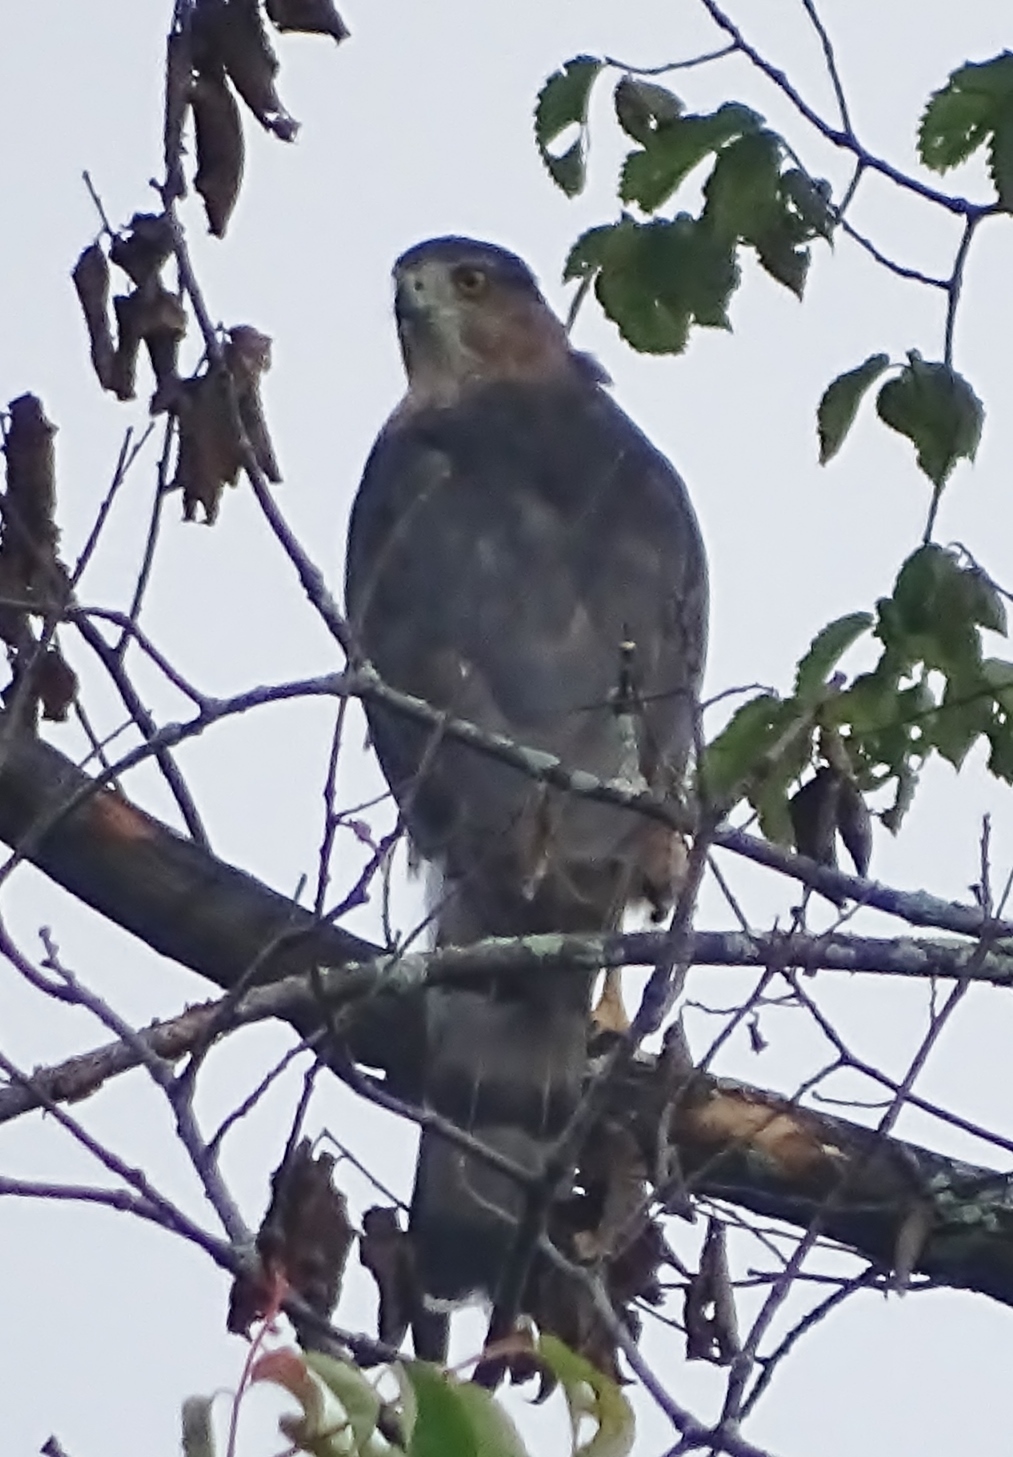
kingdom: Animalia
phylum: Chordata
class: Aves
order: Accipitriformes
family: Accipitridae
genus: Accipiter
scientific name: Accipiter cooperii
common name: Cooper's hawk
